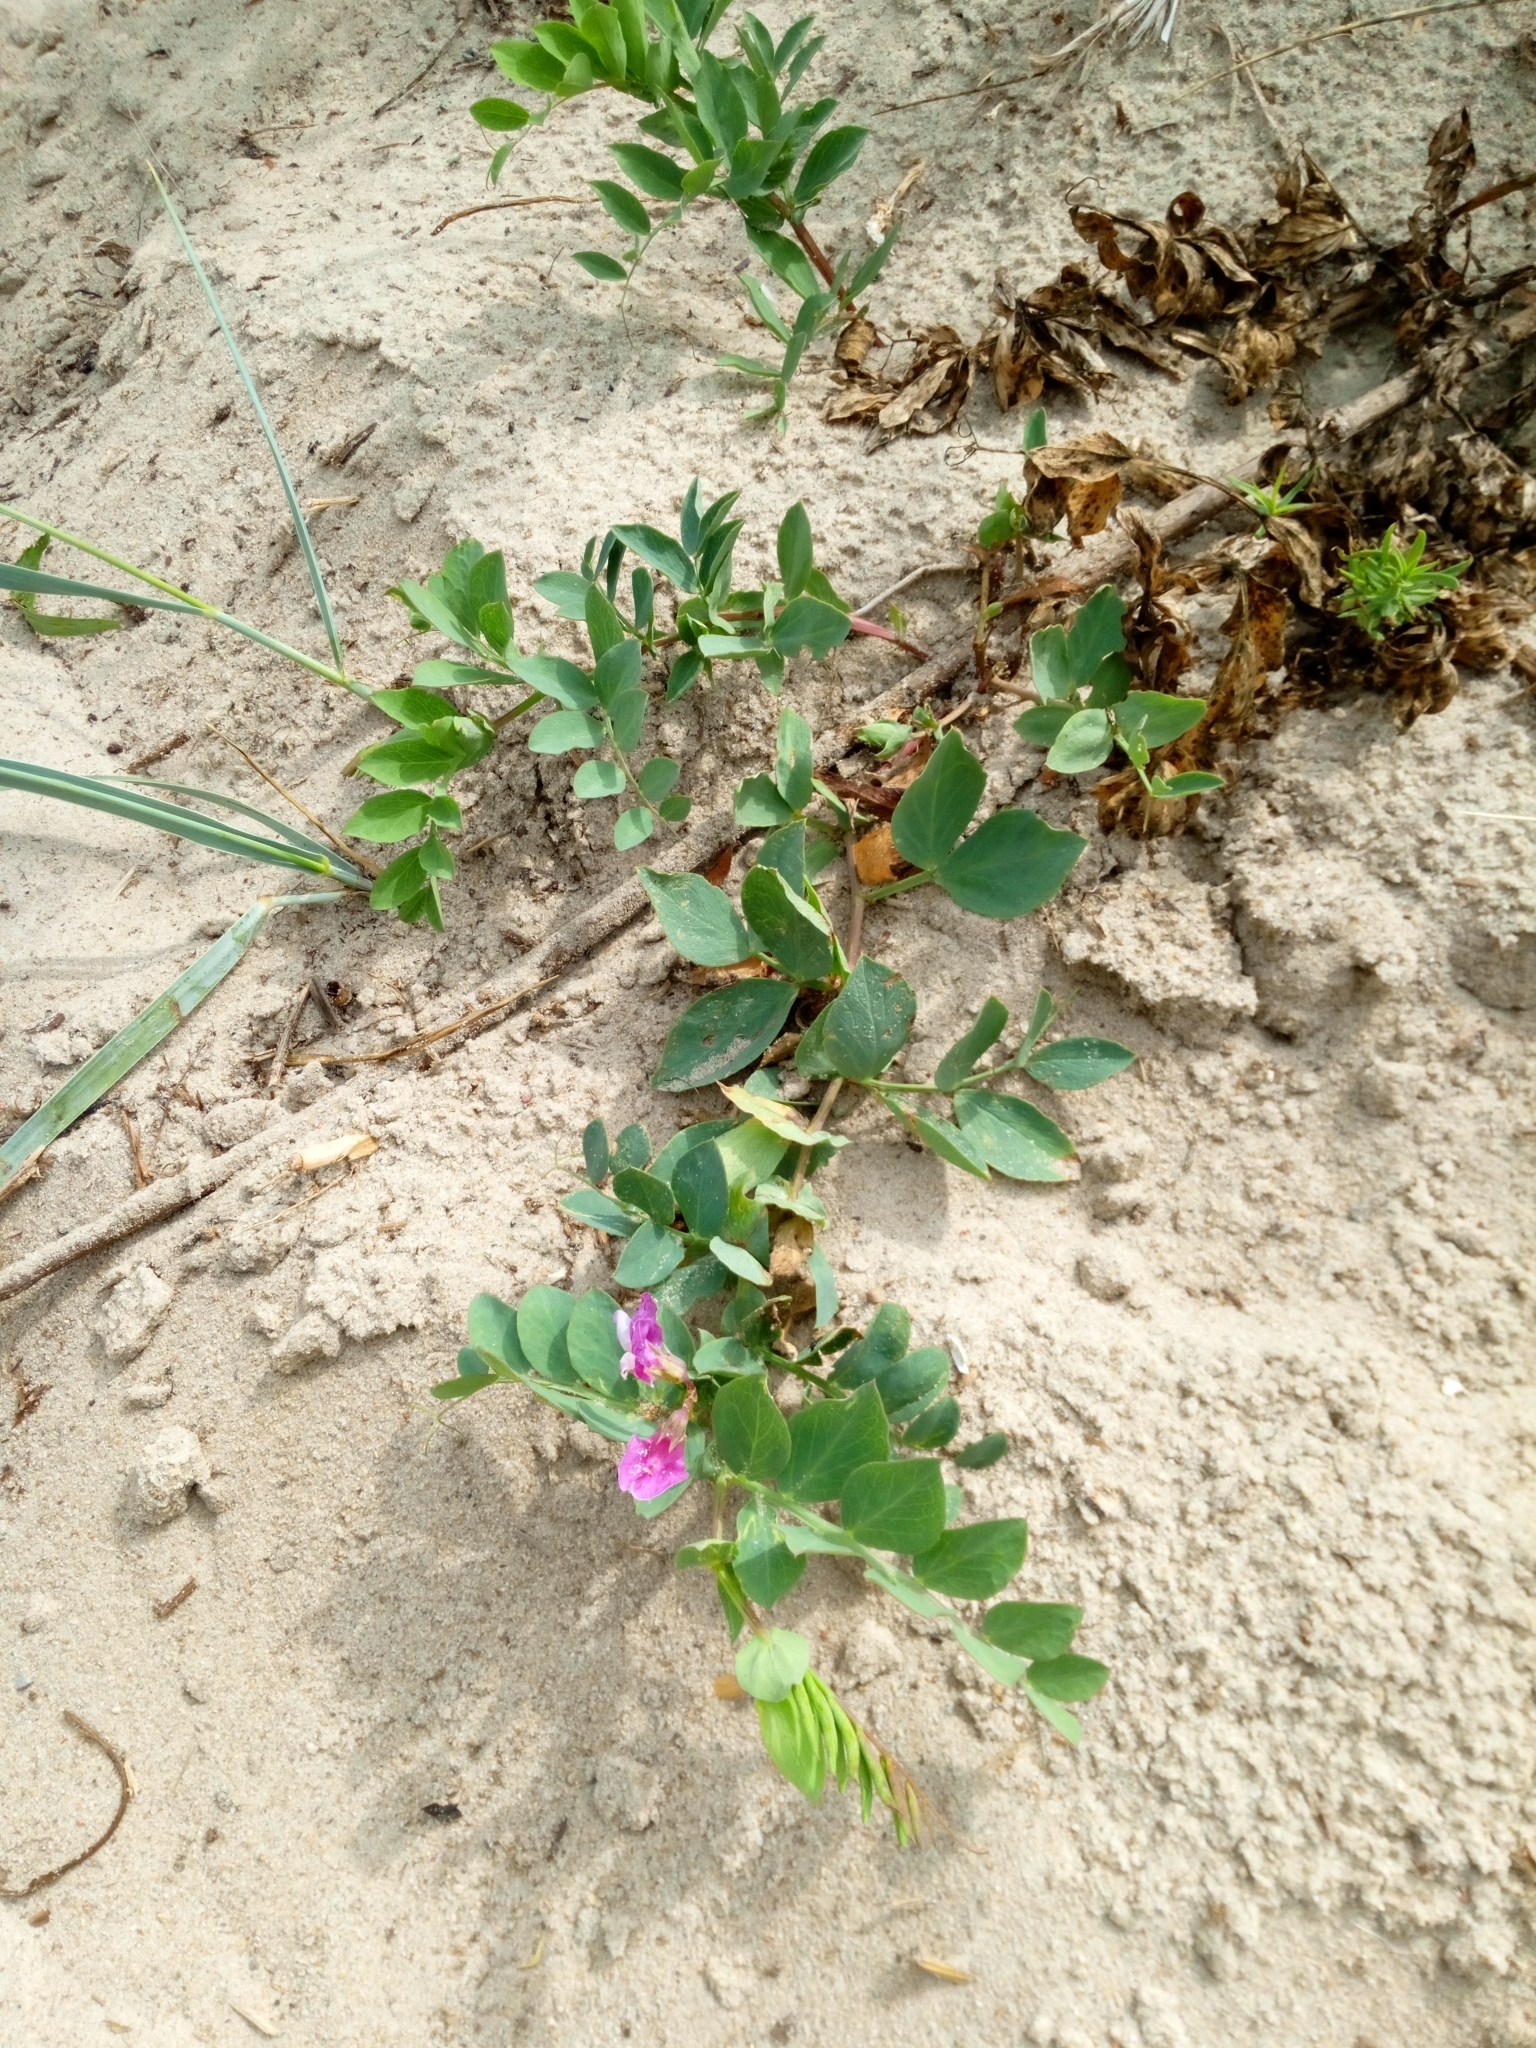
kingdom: Plantae
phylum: Tracheophyta
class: Magnoliopsida
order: Fabales
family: Fabaceae
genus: Lathyrus
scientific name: Lathyrus japonicus
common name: Sea pea
